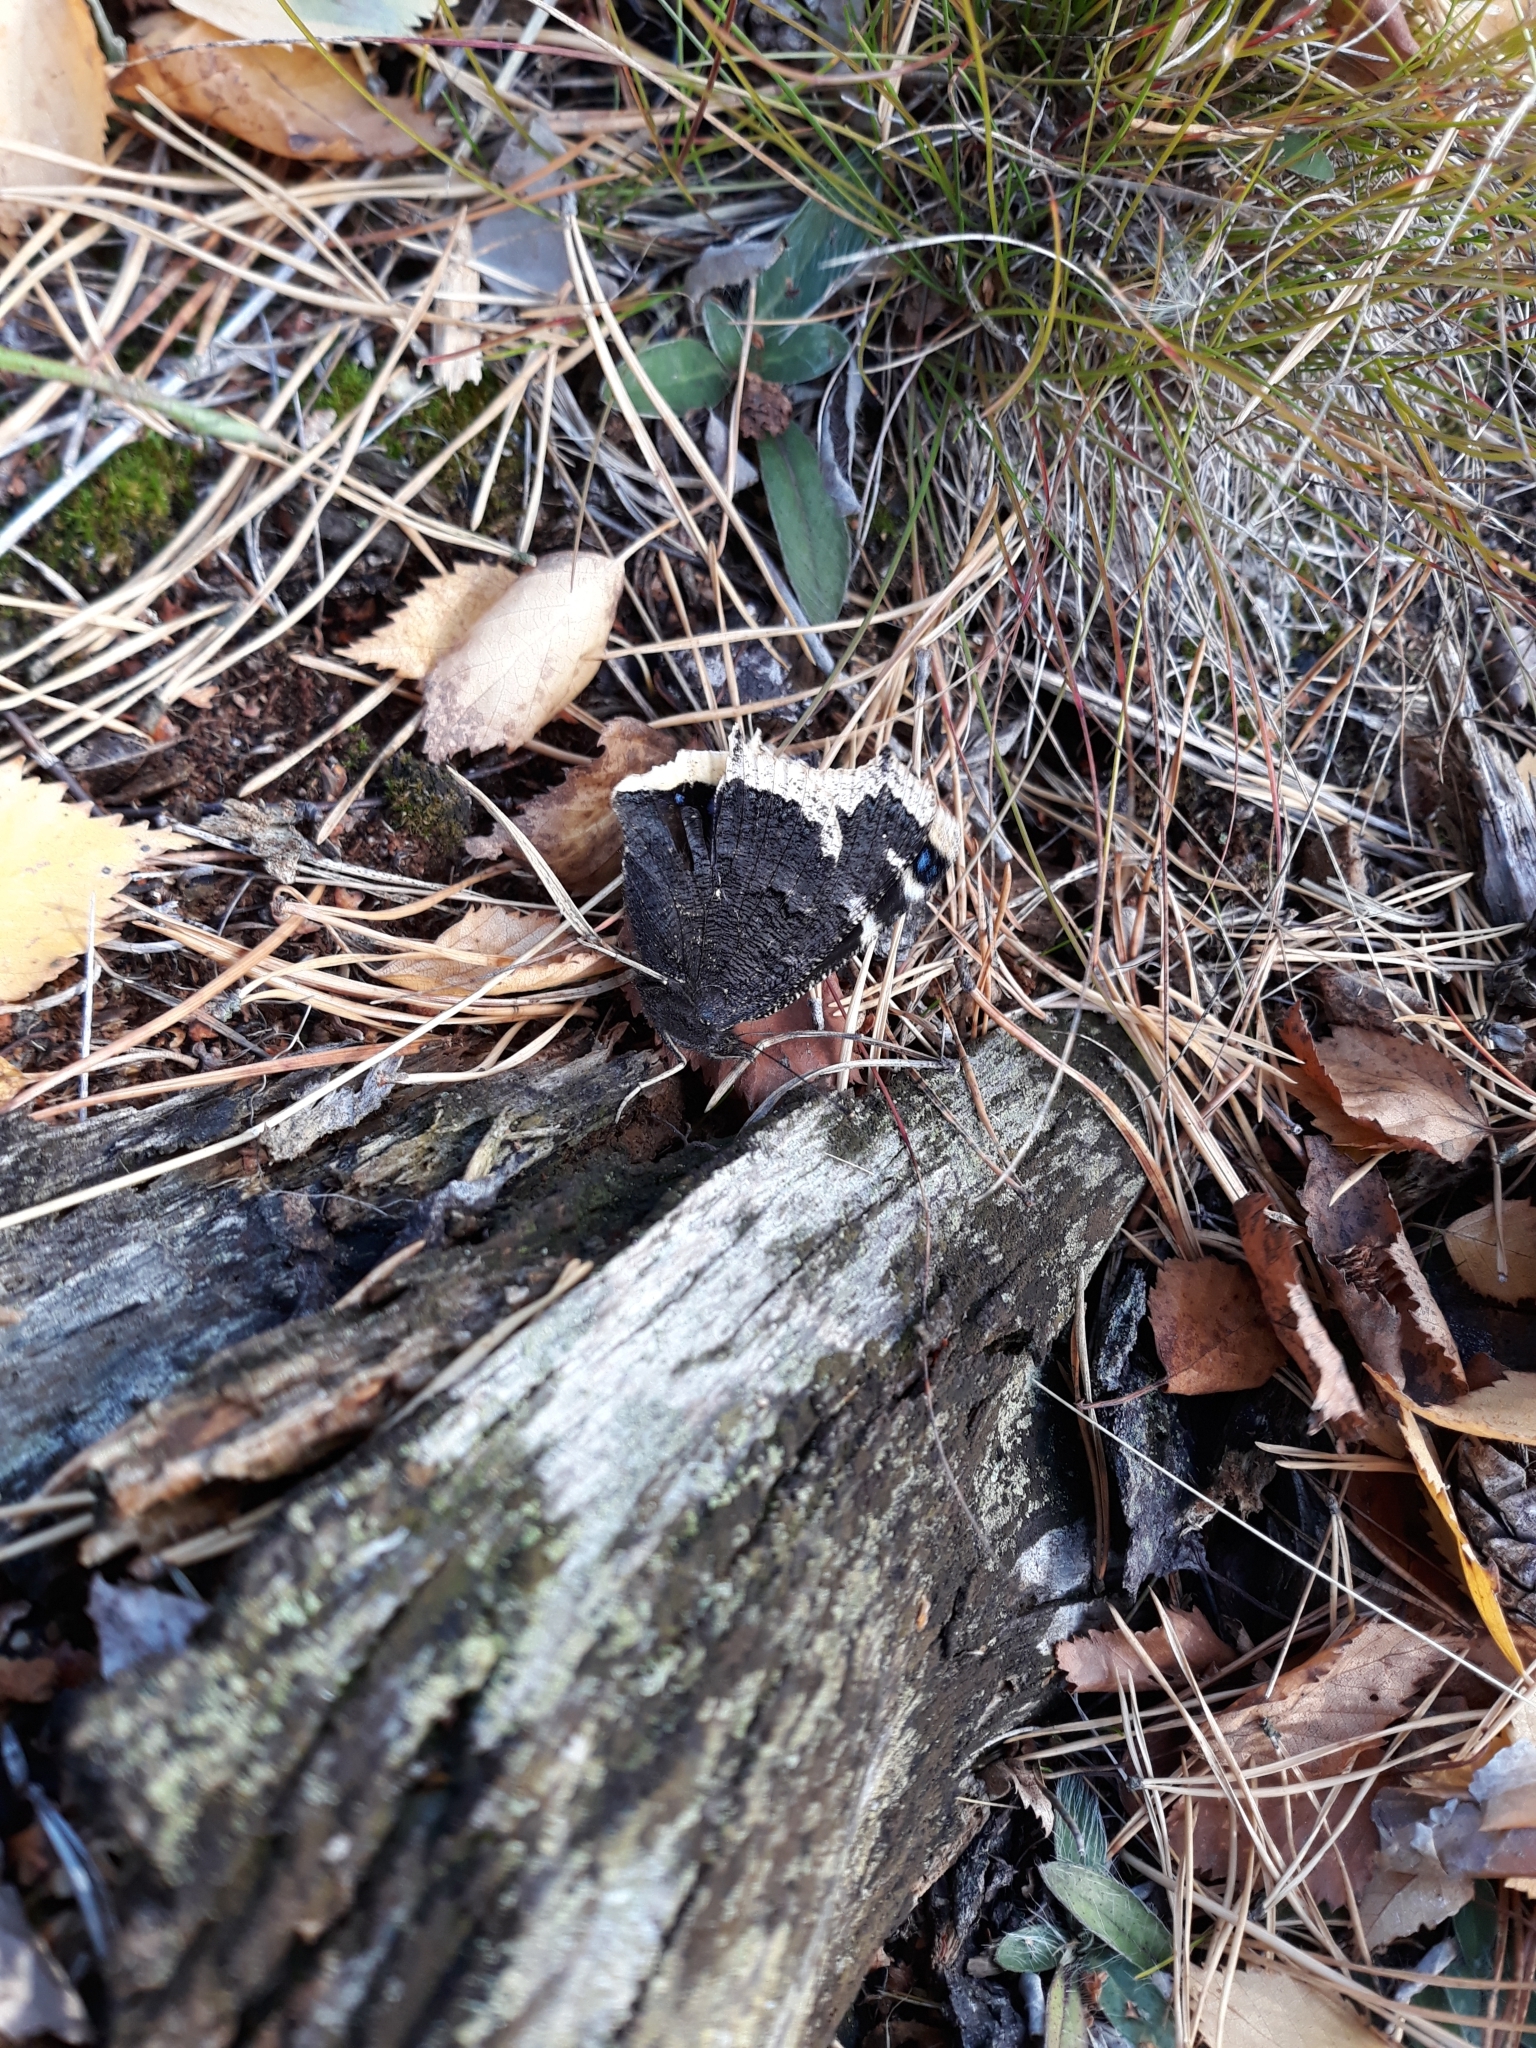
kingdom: Animalia
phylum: Arthropoda
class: Insecta
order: Lepidoptera
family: Nymphalidae
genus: Nymphalis
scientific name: Nymphalis antiopa
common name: Camberwell beauty
